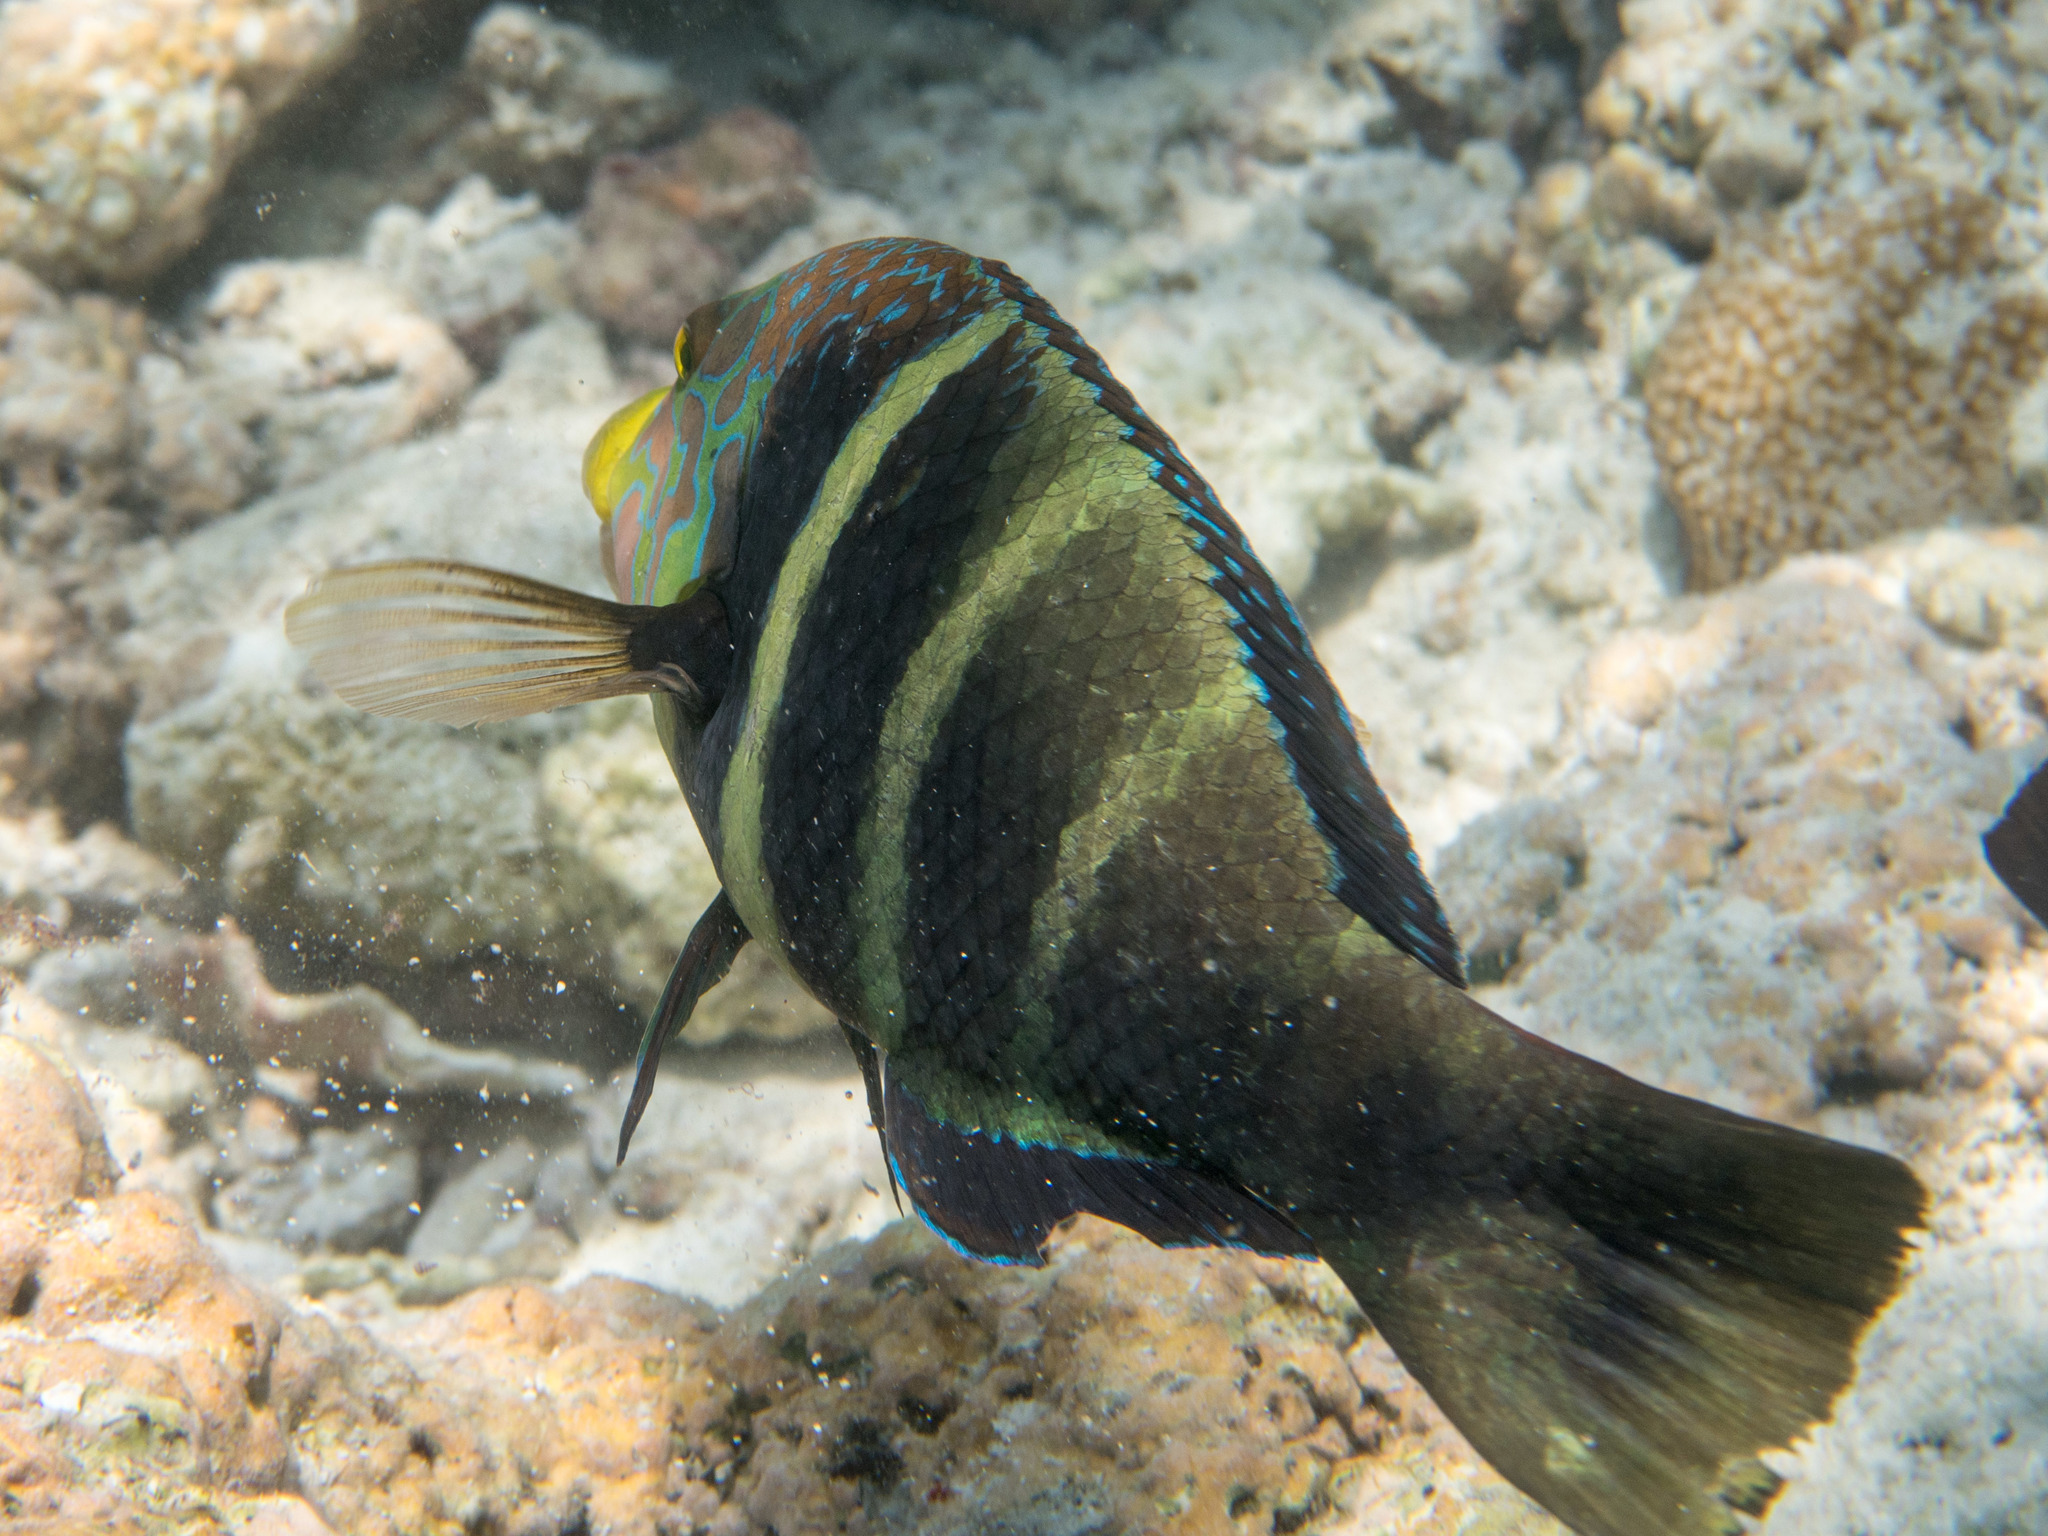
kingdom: Animalia
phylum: Chordata
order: Perciformes
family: Labridae
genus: Hemigymnus
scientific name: Hemigymnus fasciatus
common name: Barred thicklip
